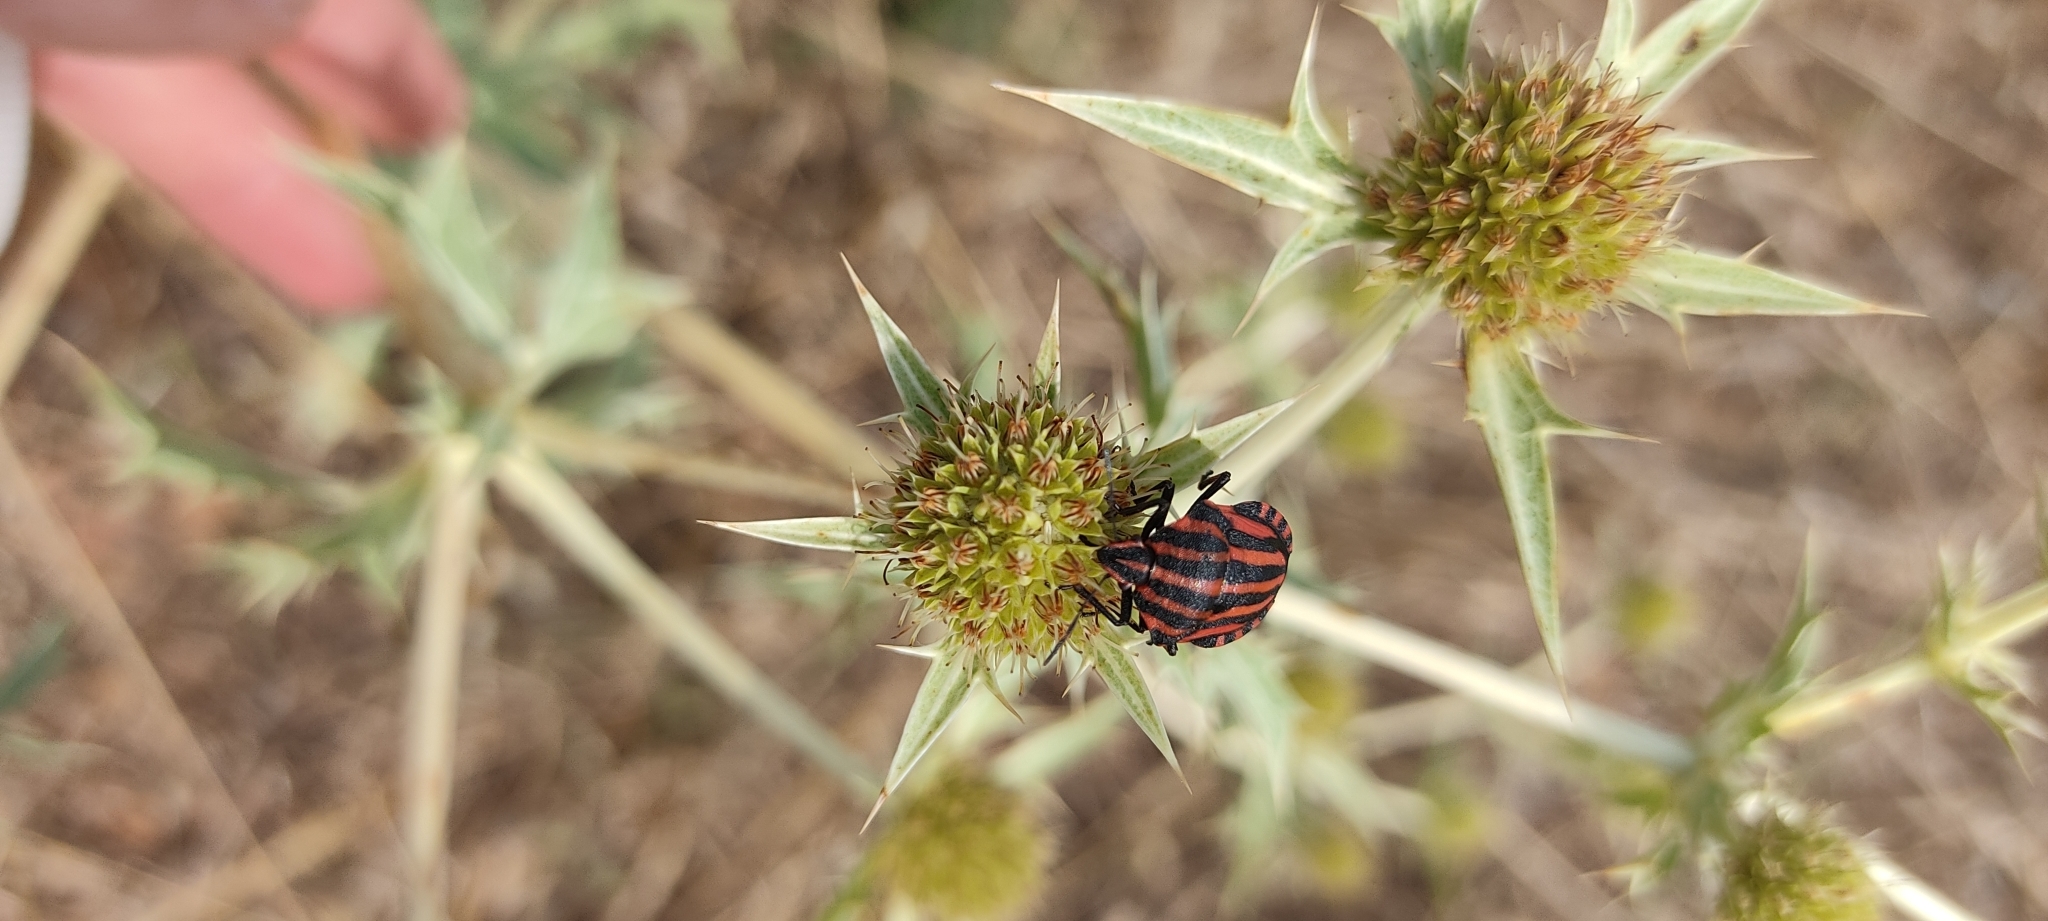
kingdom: Animalia
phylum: Arthropoda
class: Insecta
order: Hemiptera
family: Pentatomidae
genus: Graphosoma
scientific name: Graphosoma italicum
